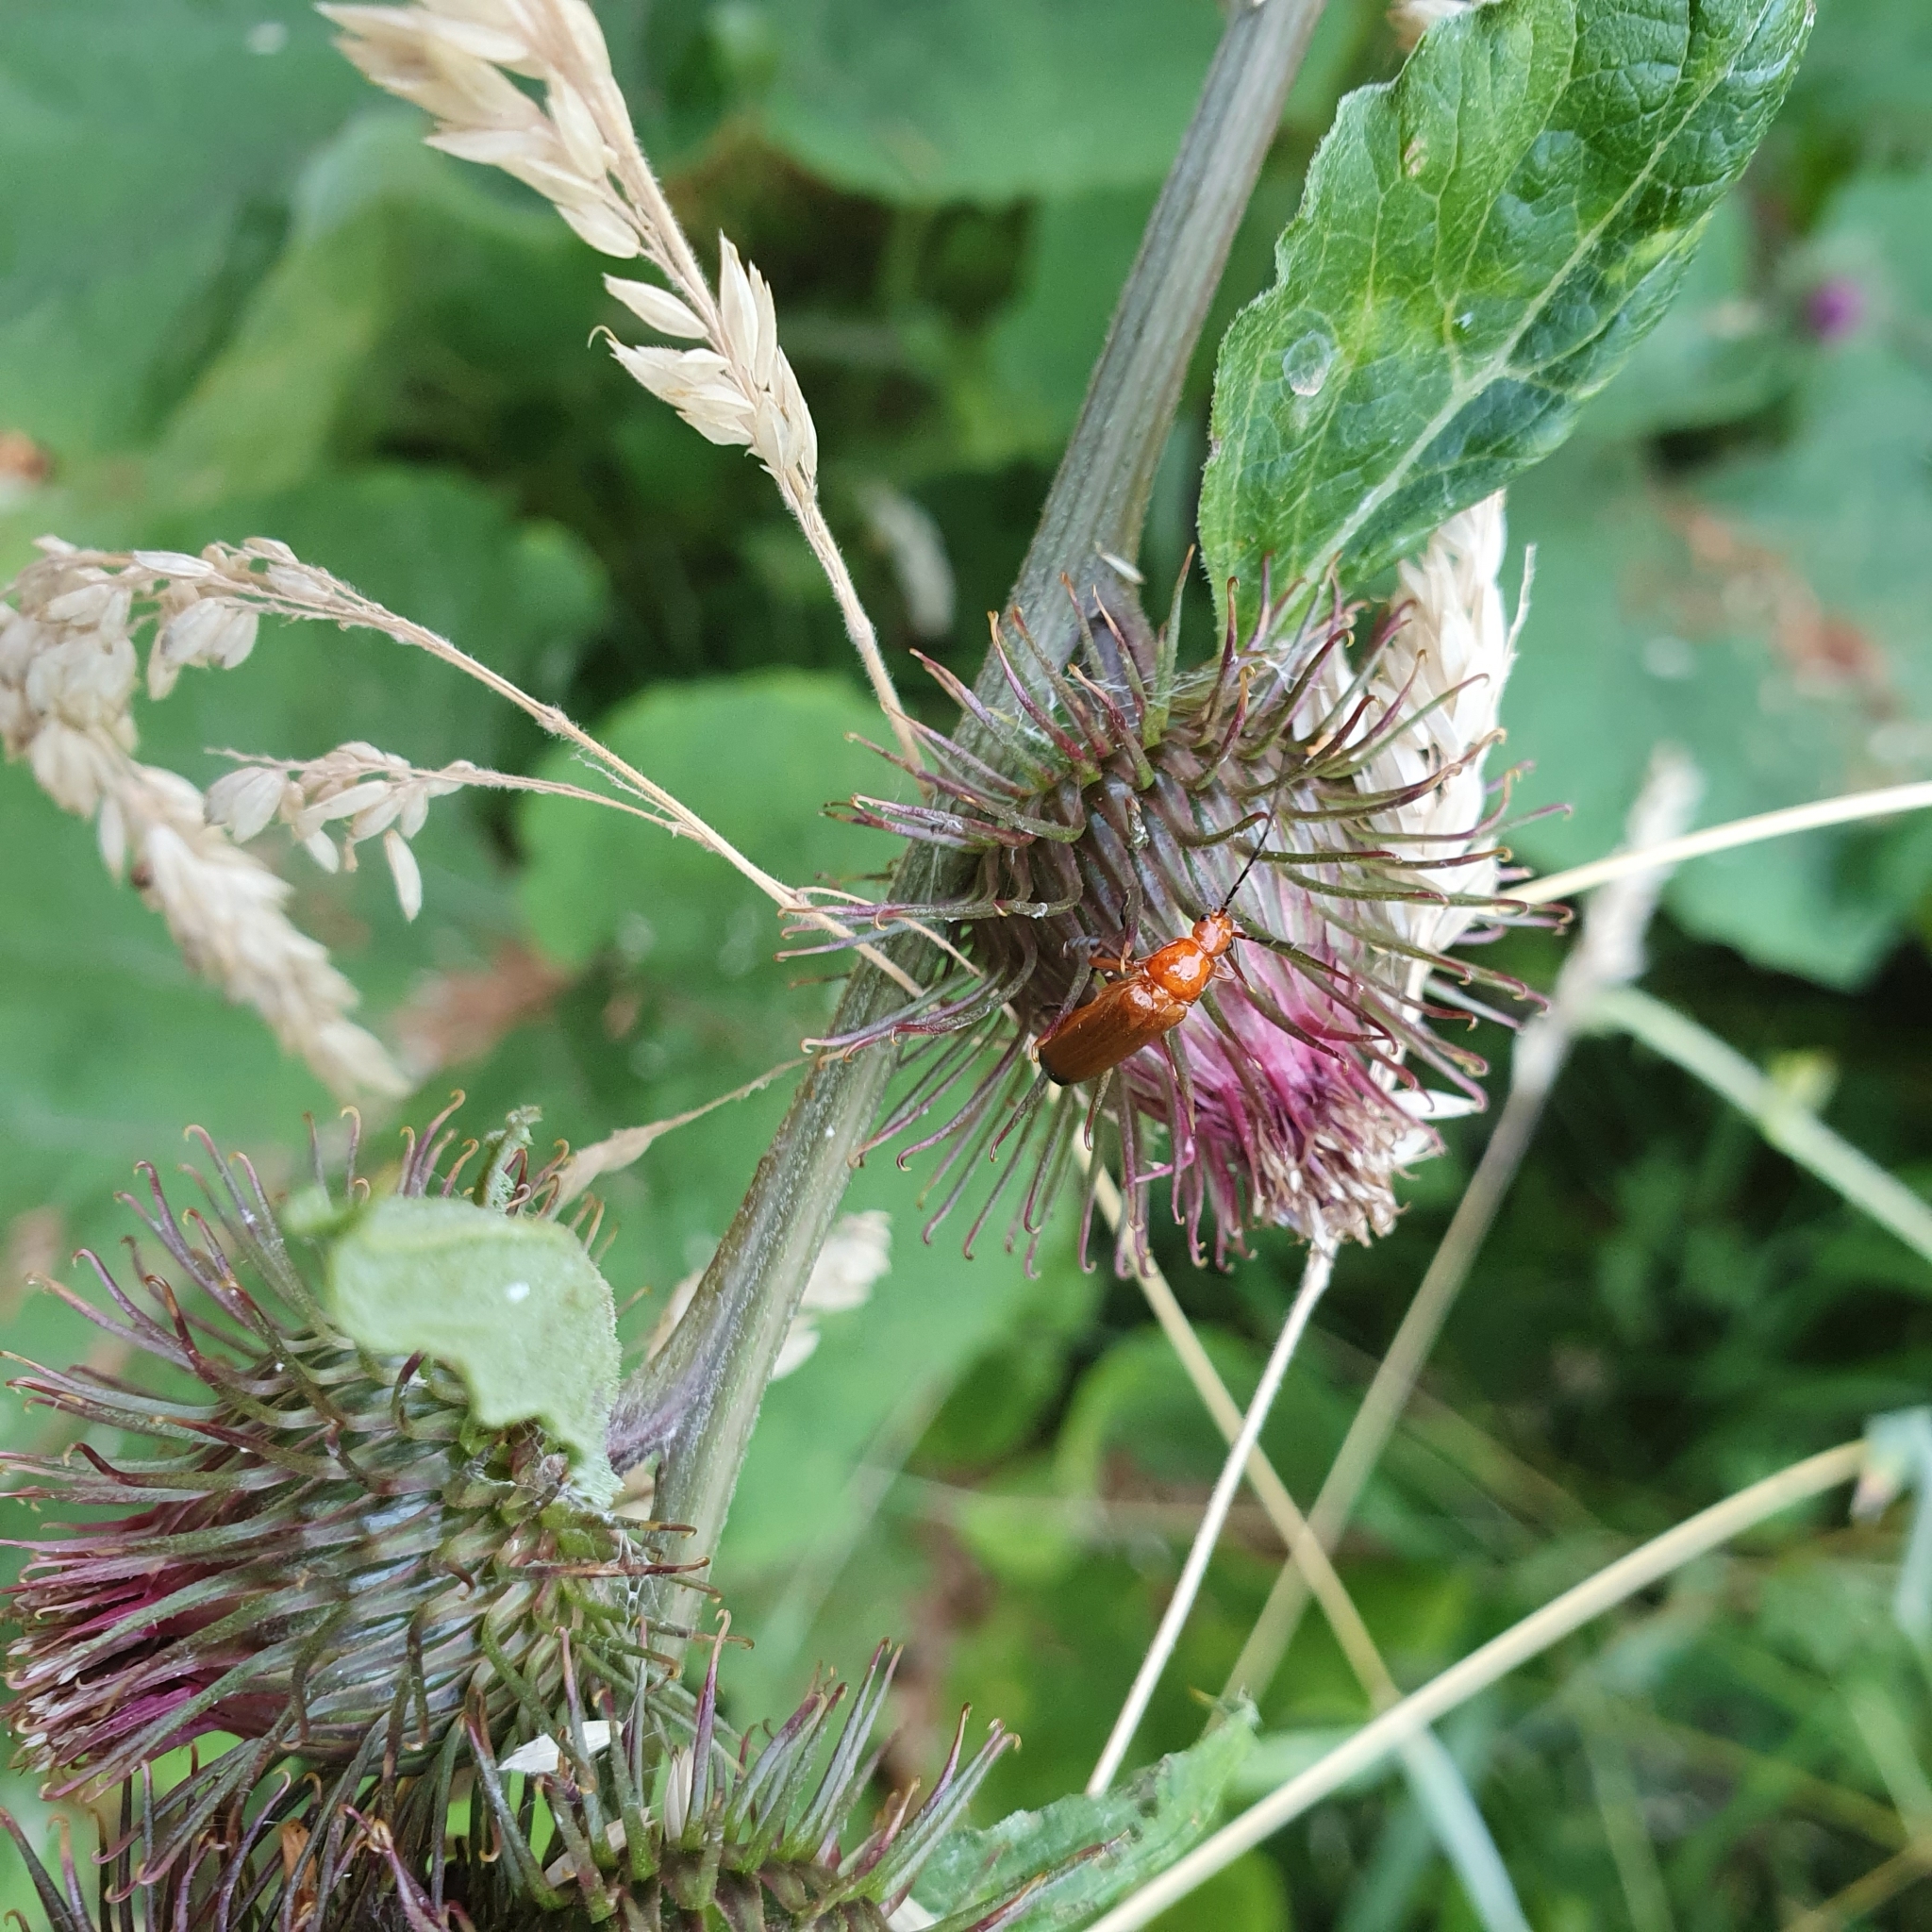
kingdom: Animalia
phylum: Arthropoda
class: Insecta
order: Coleoptera
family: Cantharidae
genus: Rhagonycha
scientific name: Rhagonycha fulva
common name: Common red soldier beetle
